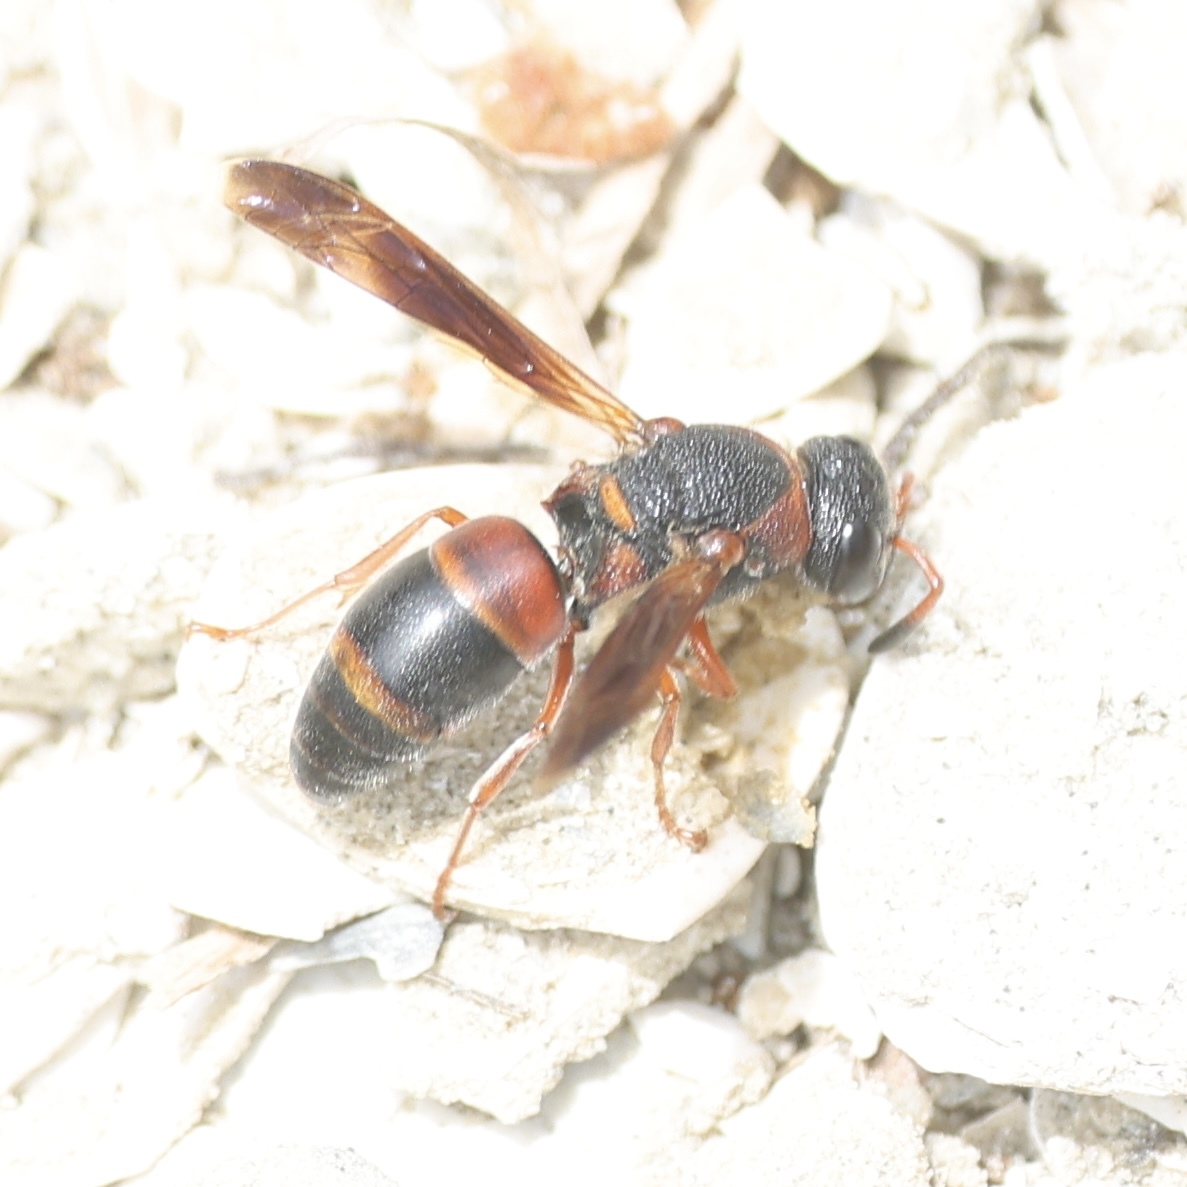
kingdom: Animalia
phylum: Arthropoda
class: Insecta
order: Hymenoptera
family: Eumenidae
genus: Pachodynerus
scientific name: Pachodynerus erynnis
